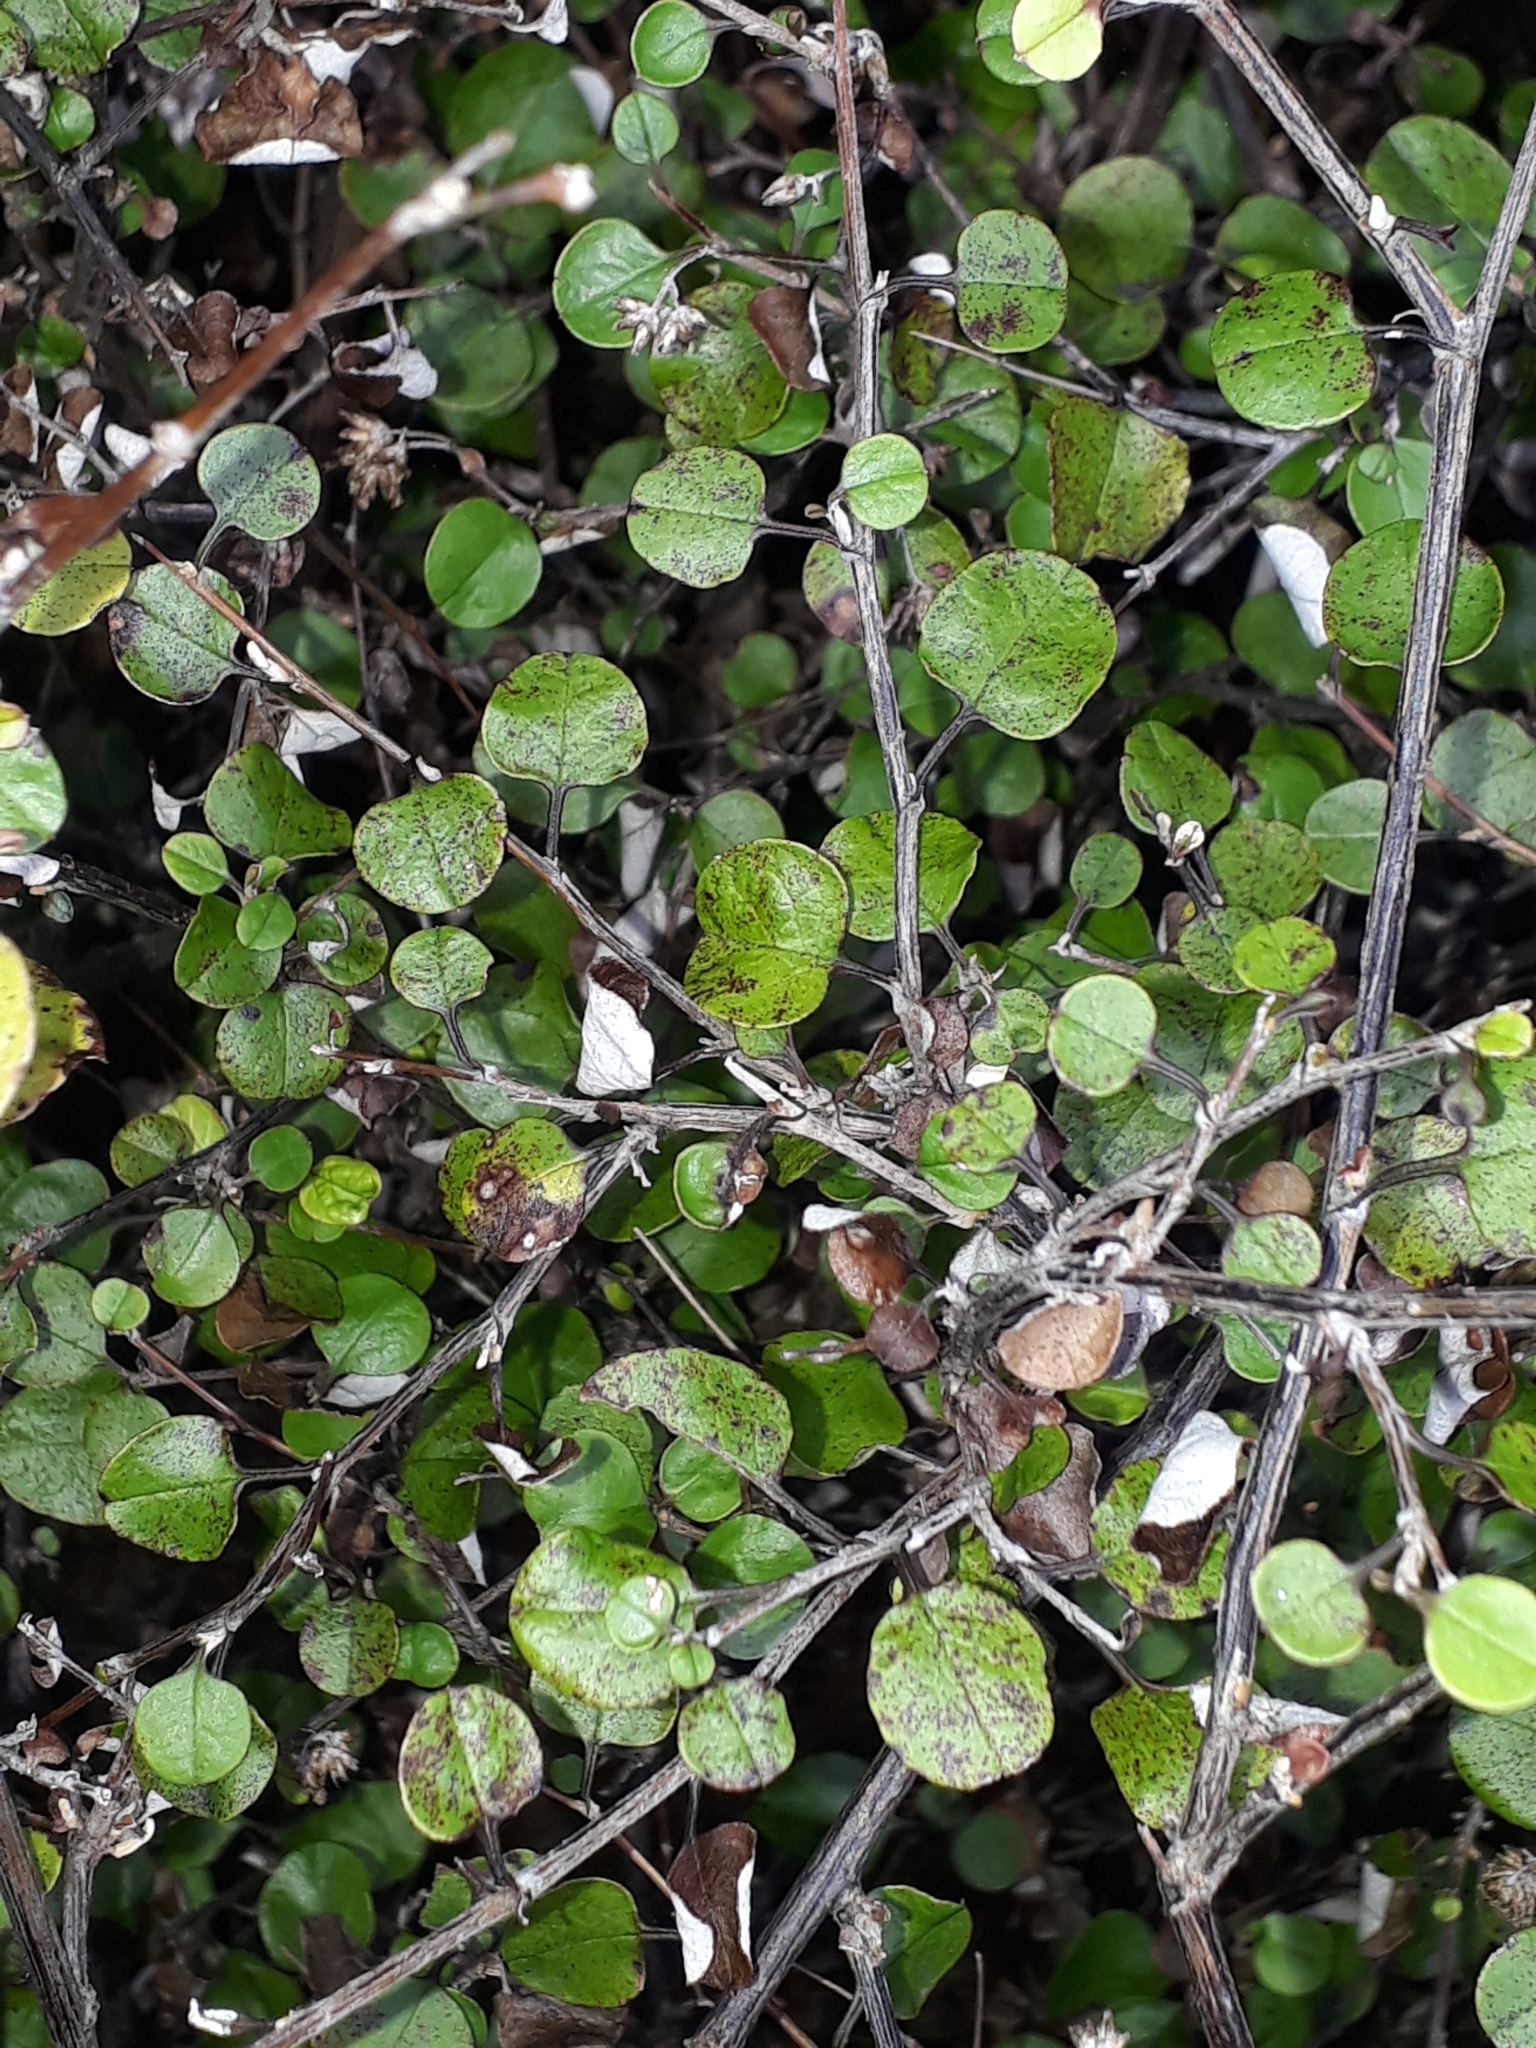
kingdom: Plantae
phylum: Tracheophyta
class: Magnoliopsida
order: Asterales
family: Asteraceae
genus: Ozothamnus
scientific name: Ozothamnus glomeratus
